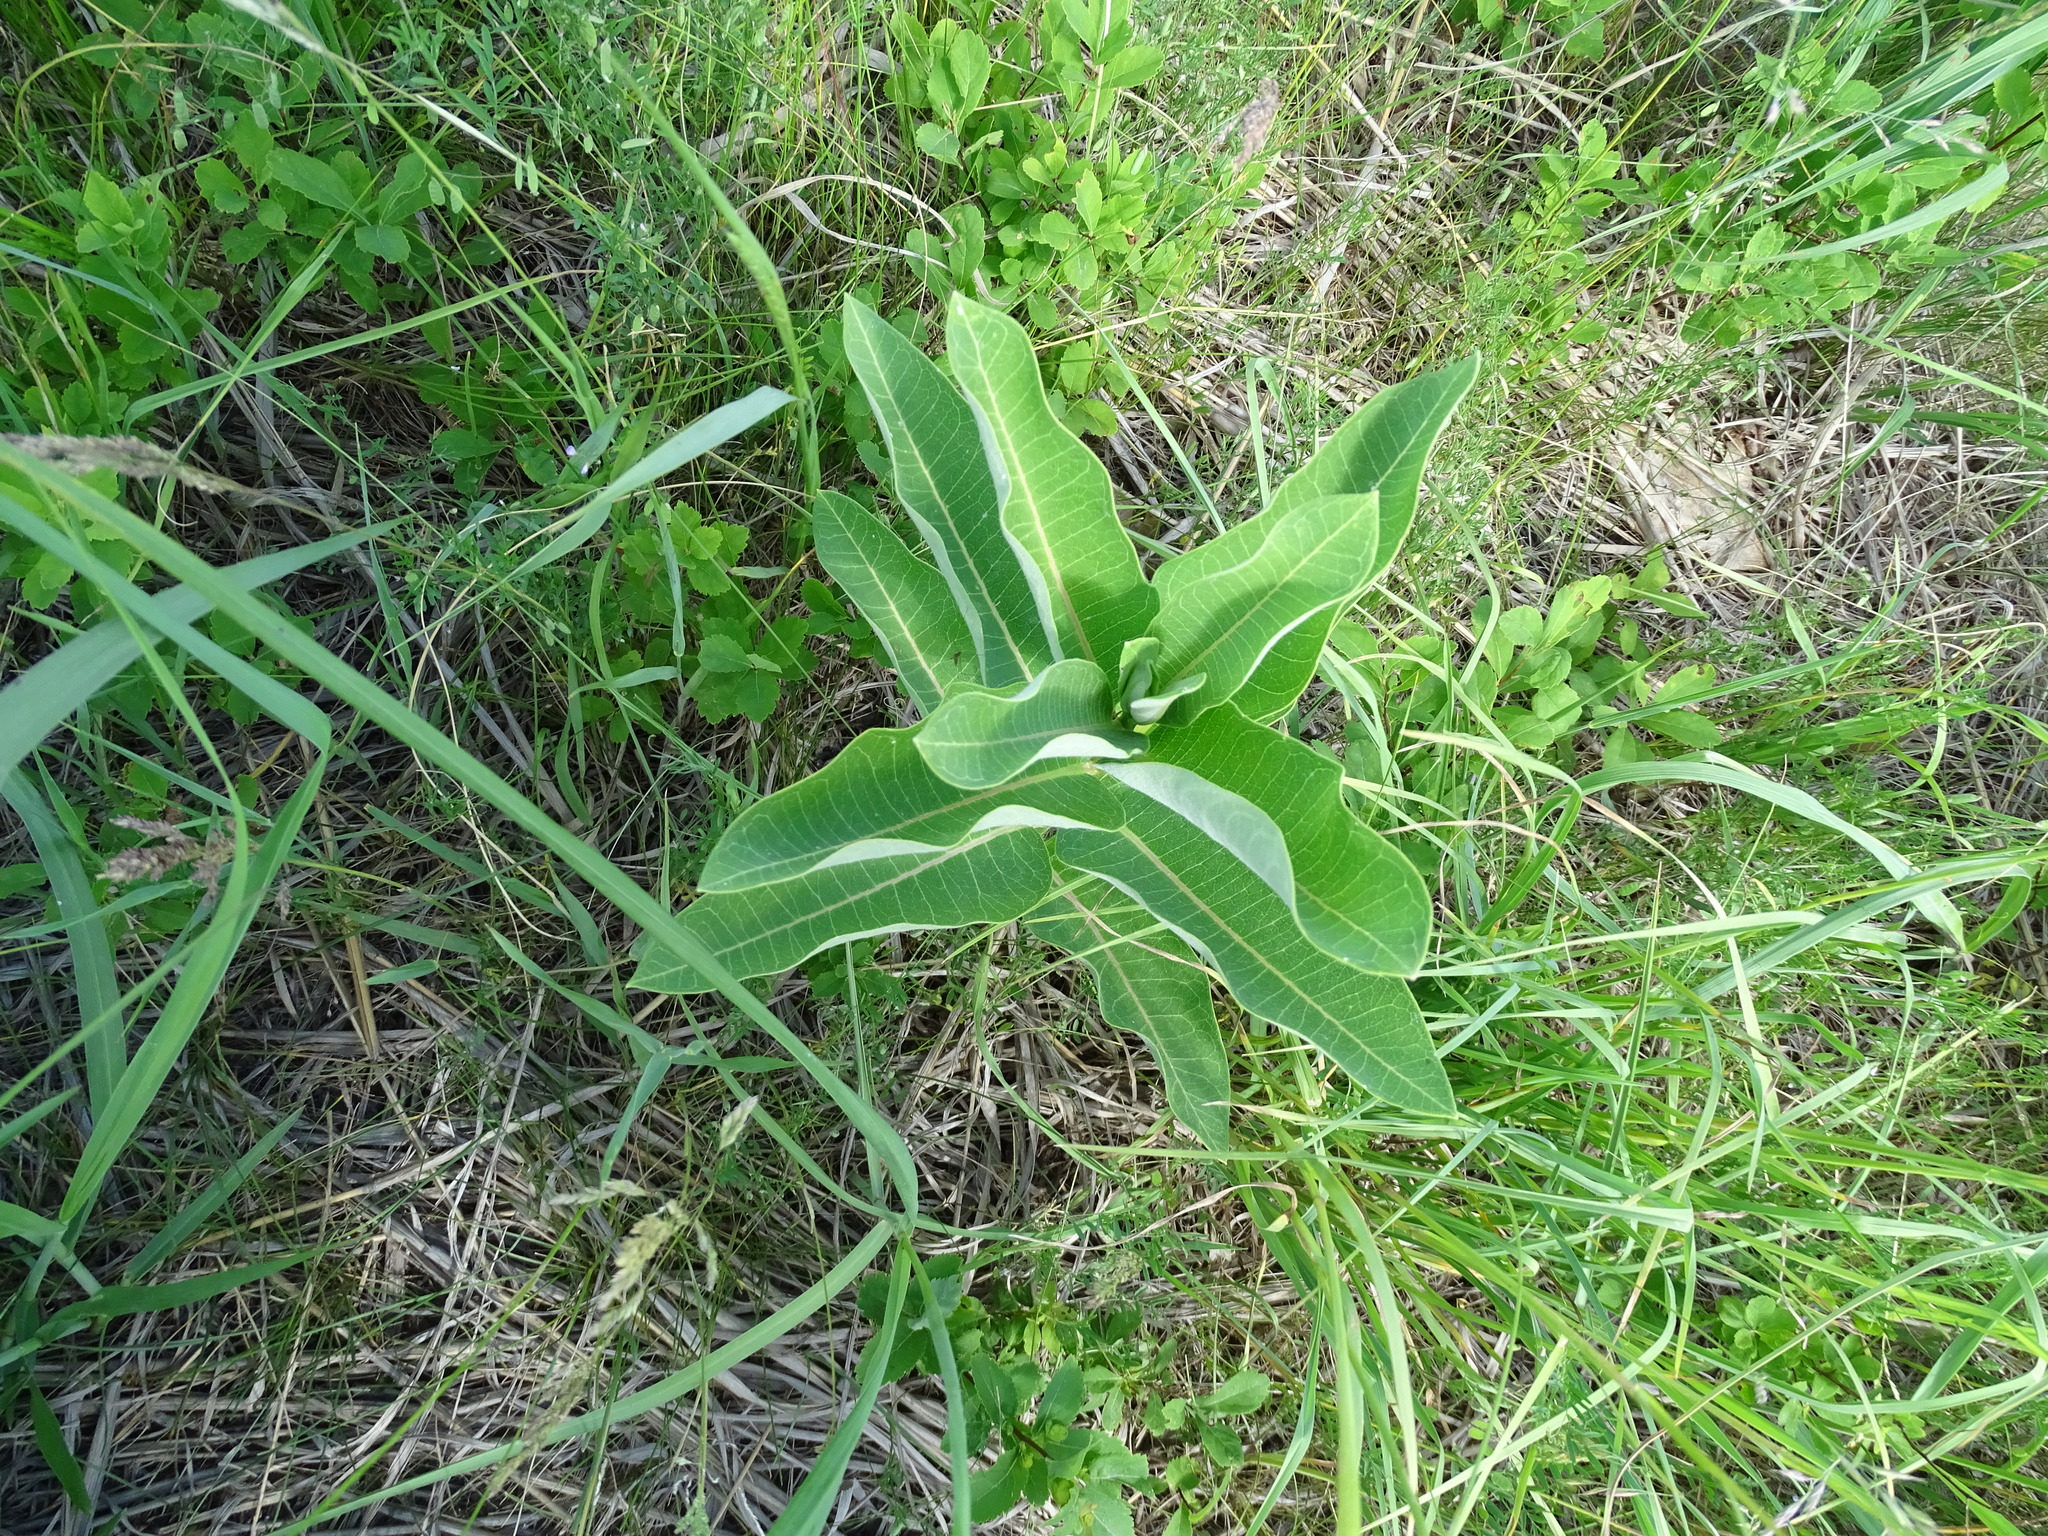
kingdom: Plantae
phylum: Tracheophyta
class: Magnoliopsida
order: Gentianales
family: Apocynaceae
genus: Asclepias
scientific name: Asclepias syriaca
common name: Common milkweed
